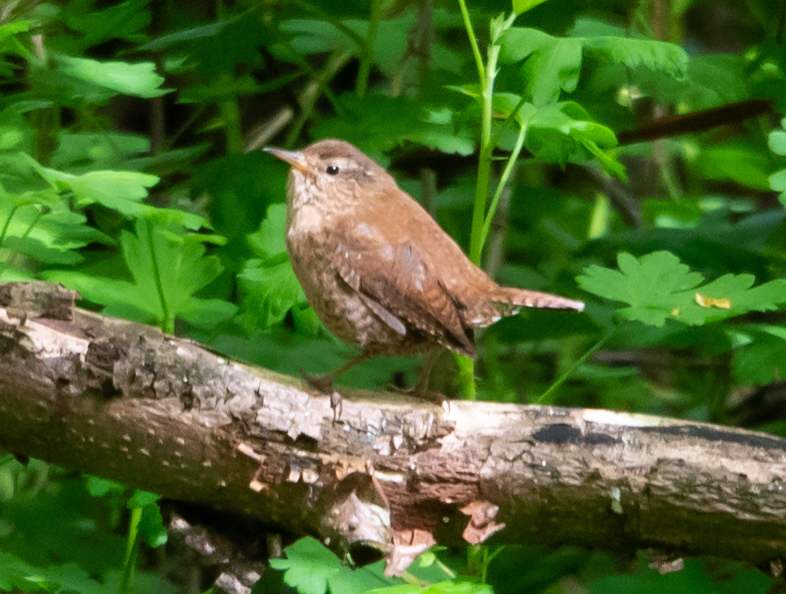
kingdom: Animalia
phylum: Chordata
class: Aves
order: Passeriformes
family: Troglodytidae
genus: Troglodytes
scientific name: Troglodytes troglodytes
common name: Eurasian wren
